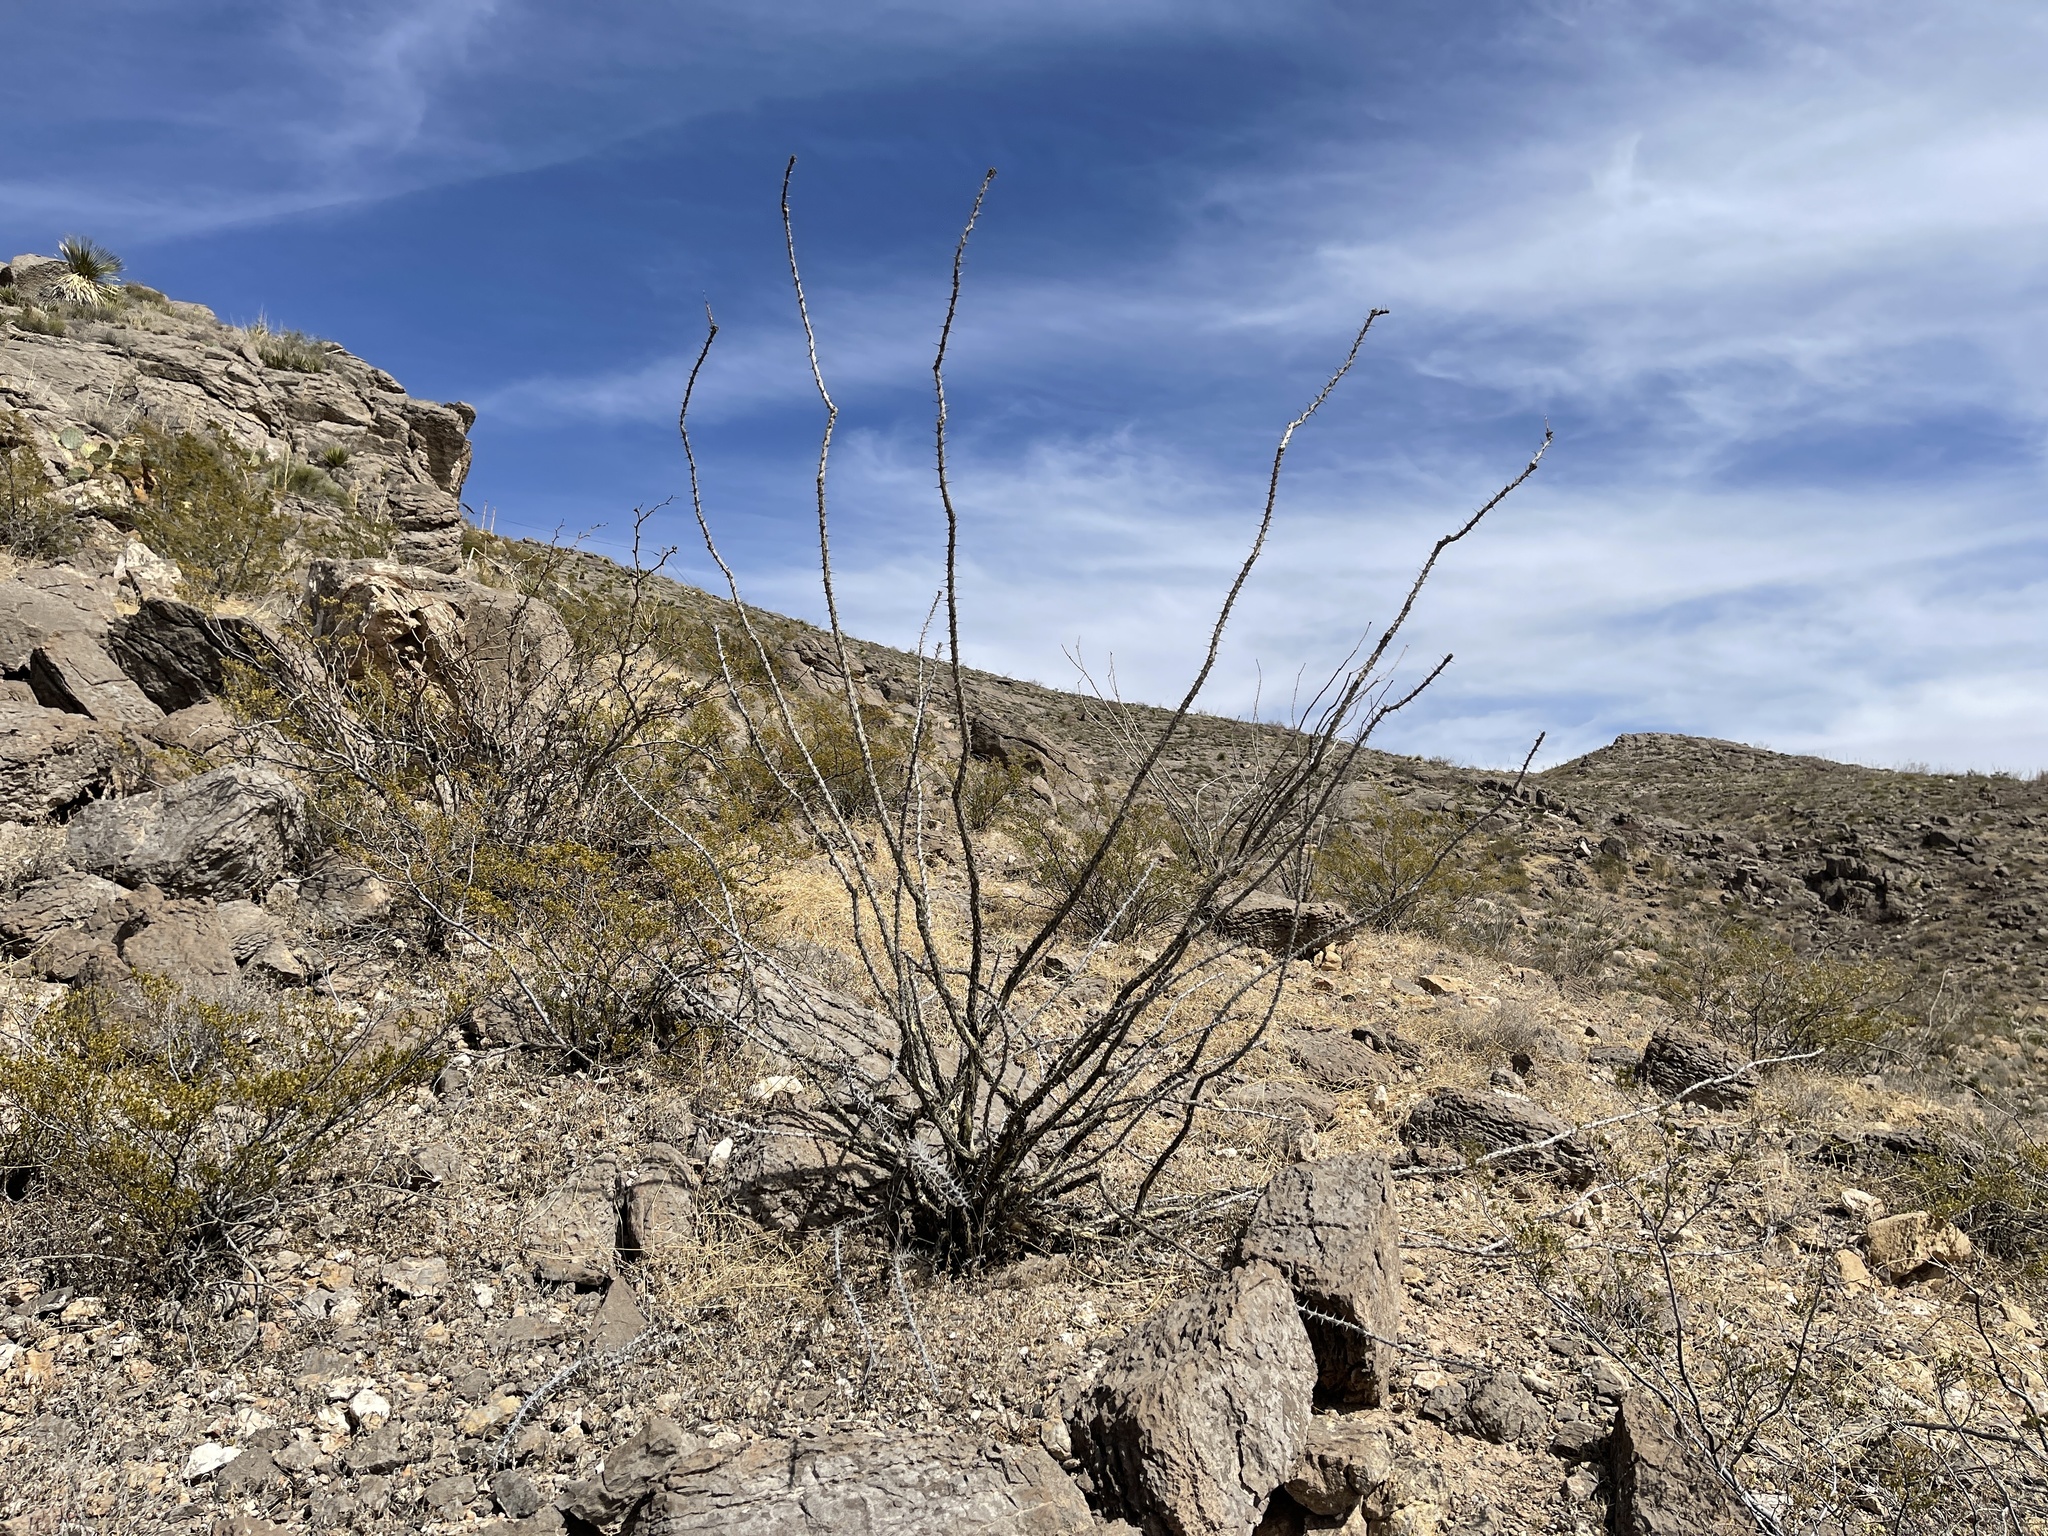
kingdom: Plantae
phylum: Tracheophyta
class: Magnoliopsida
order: Ericales
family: Fouquieriaceae
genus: Fouquieria
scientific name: Fouquieria splendens
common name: Vine-cactus
